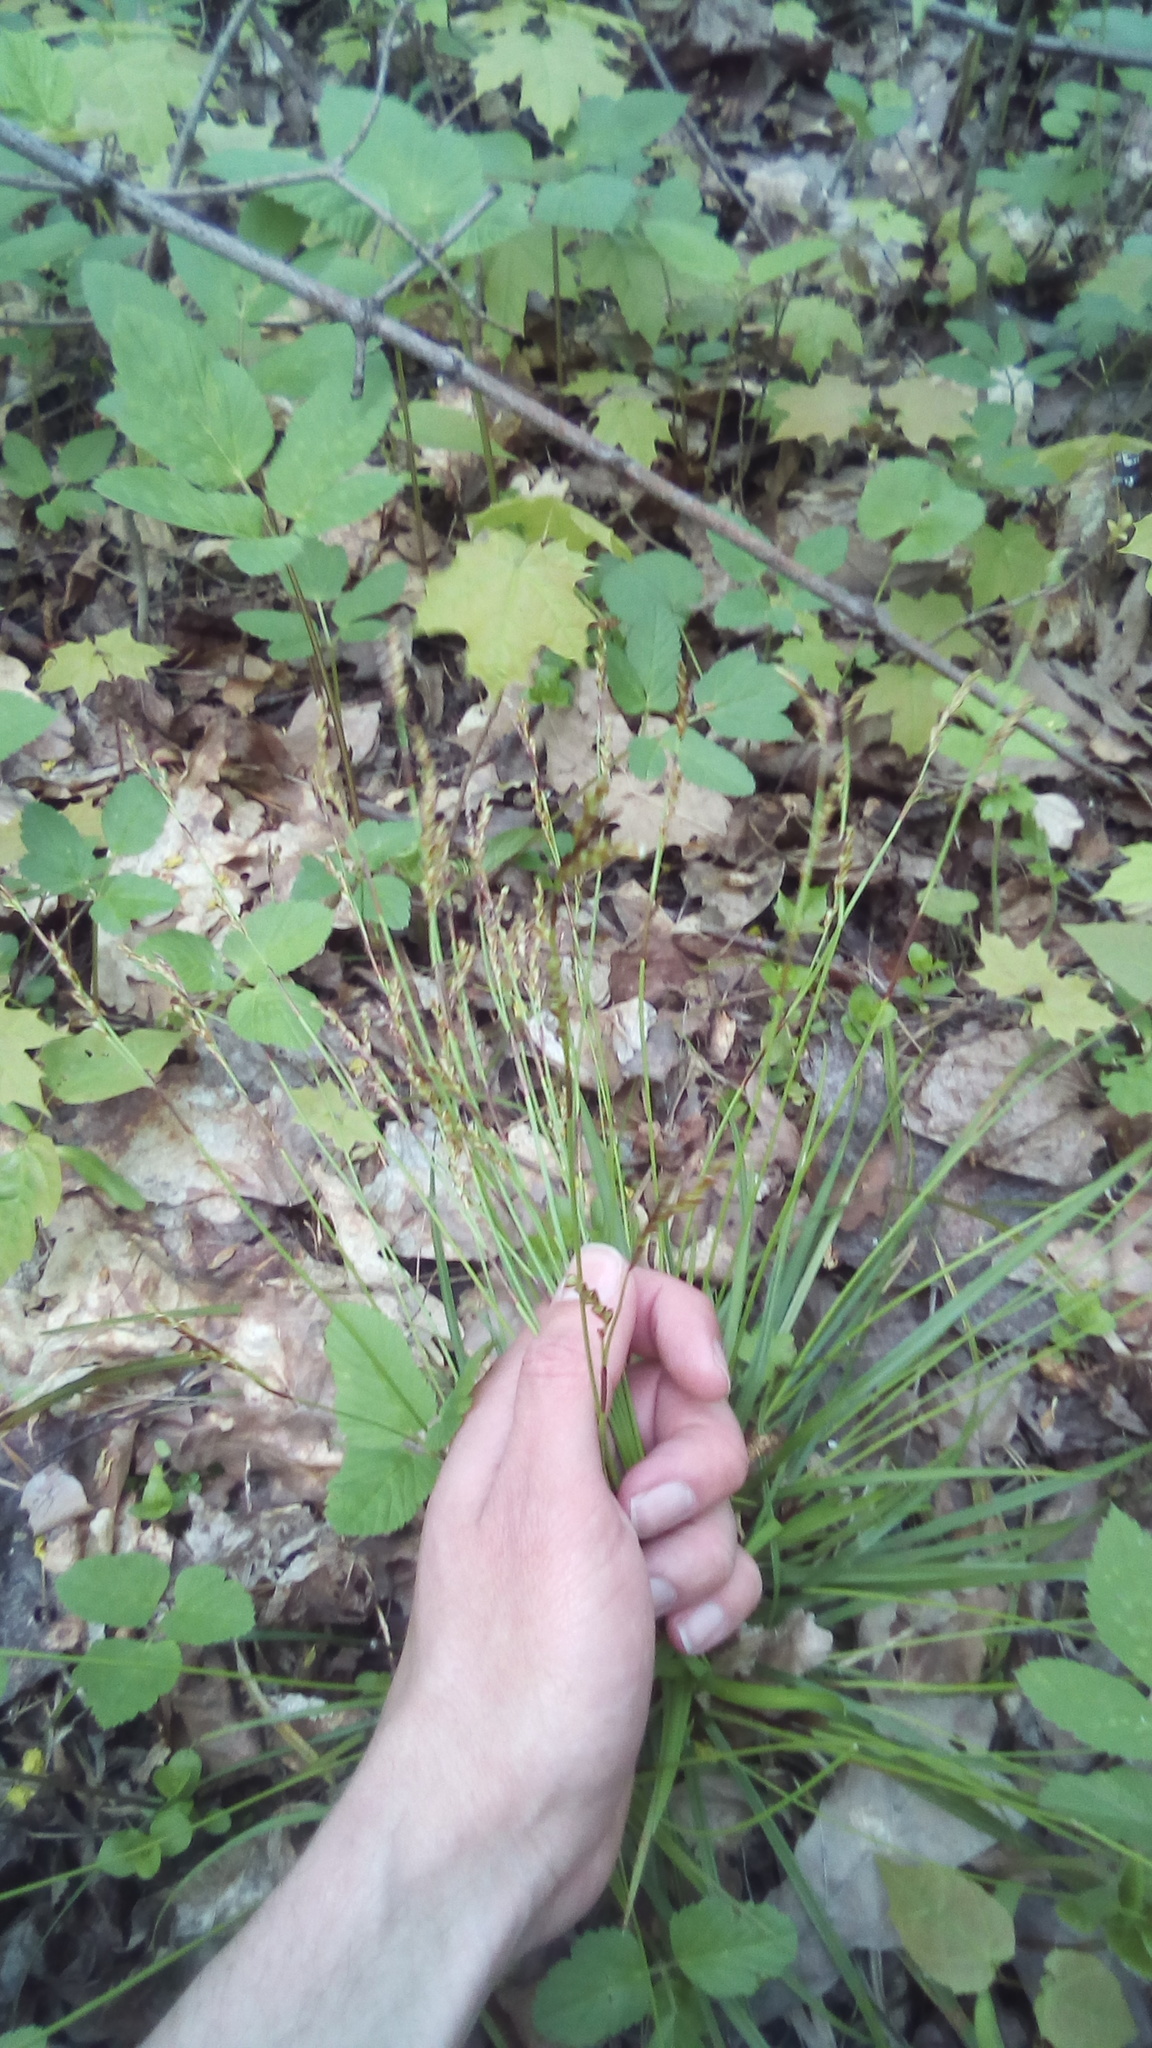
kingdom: Plantae
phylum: Tracheophyta
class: Liliopsida
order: Poales
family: Cyperaceae
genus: Carex
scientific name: Carex digitata
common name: Fingered sedge
